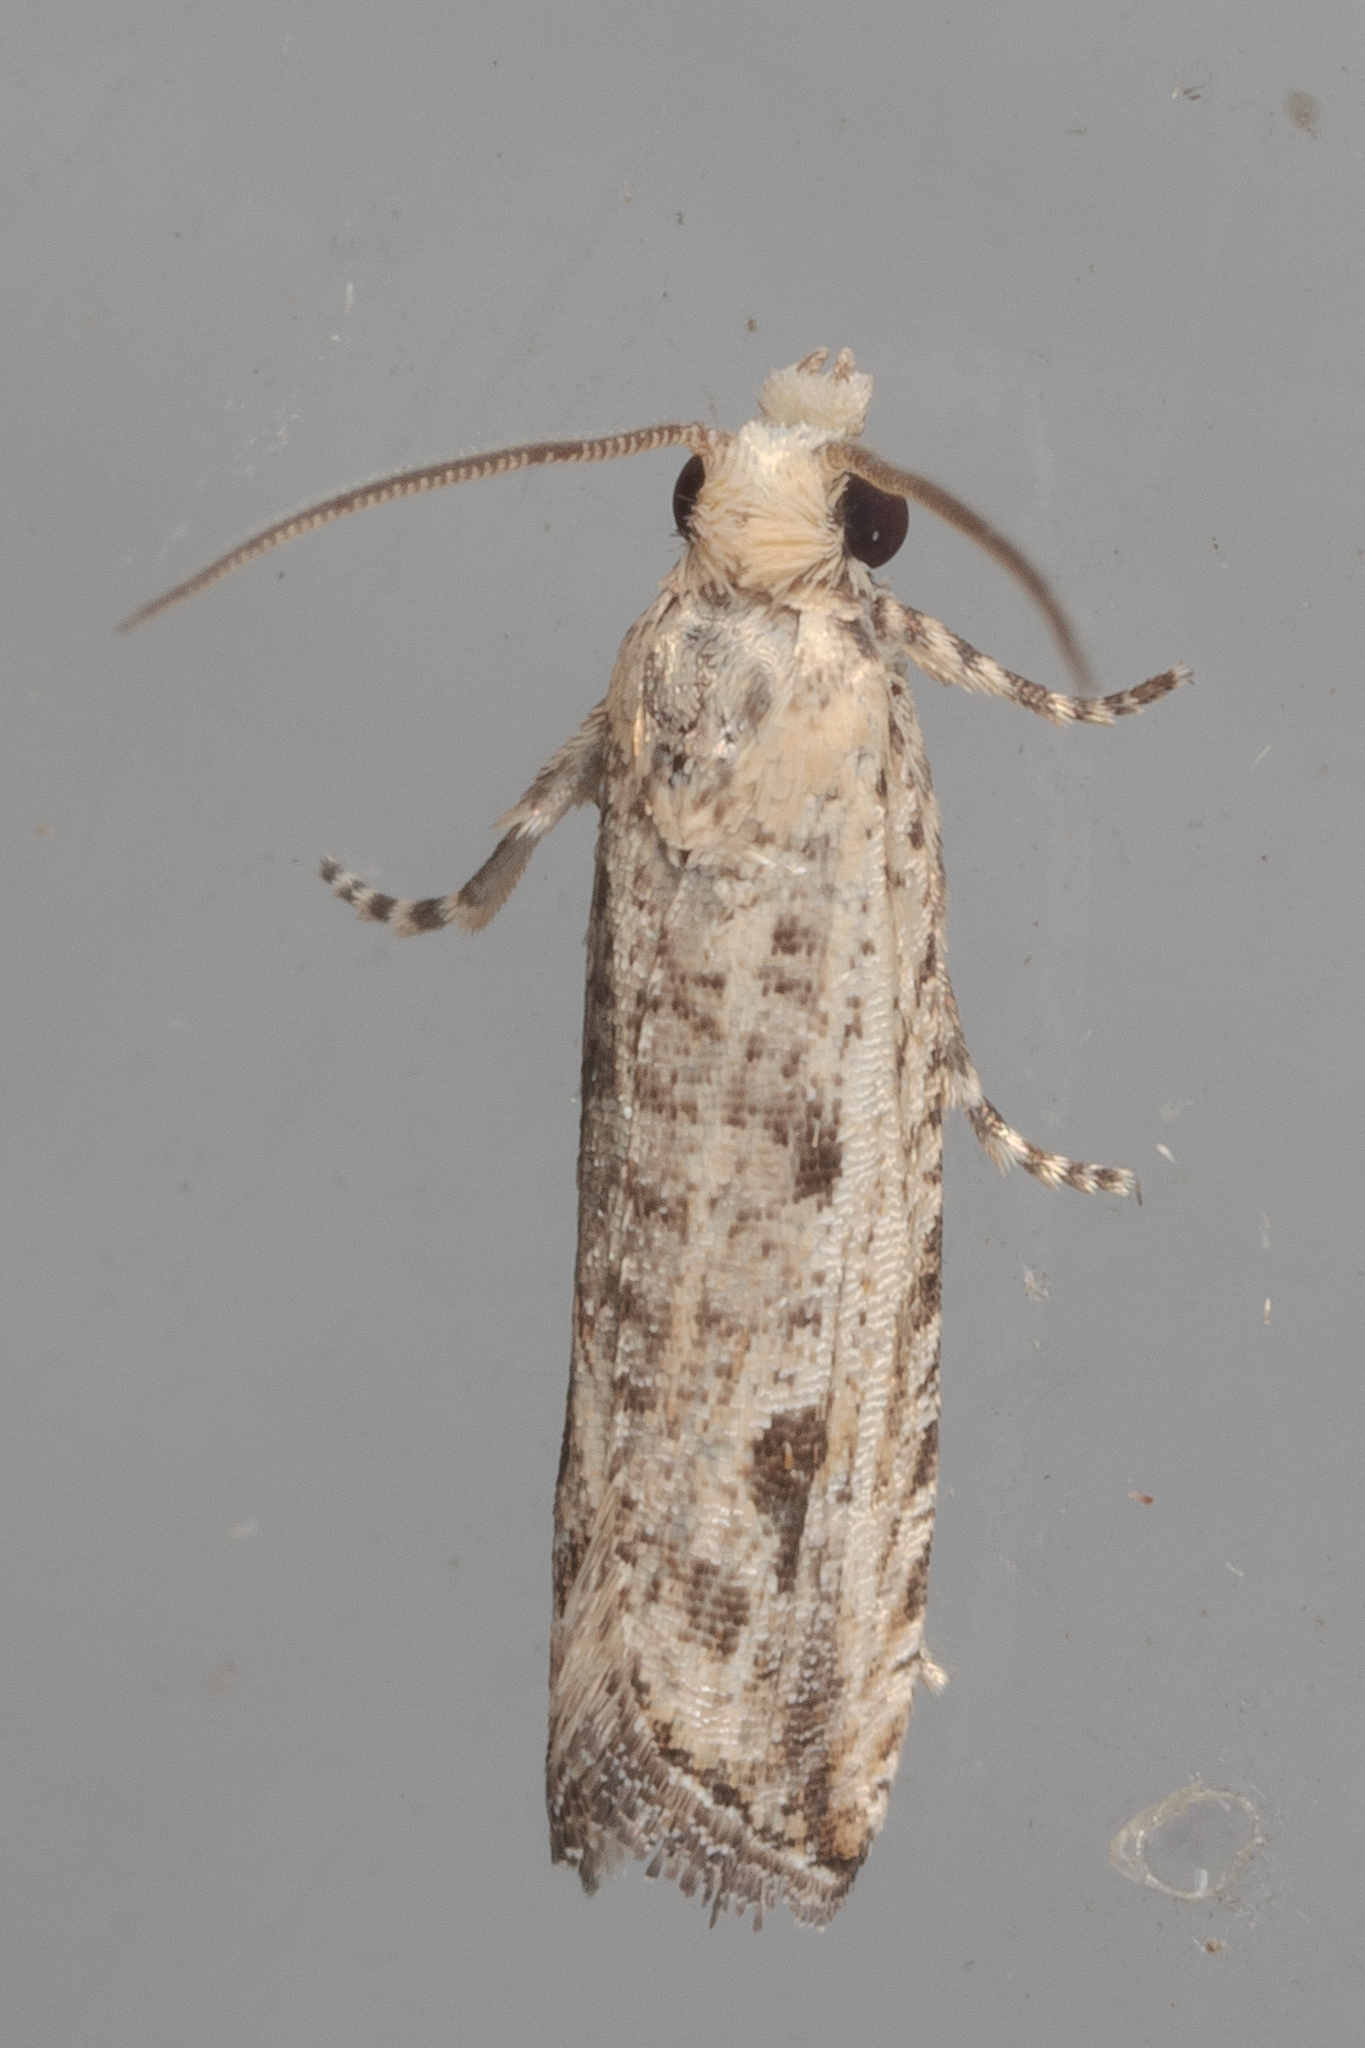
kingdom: Animalia
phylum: Arthropoda
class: Insecta
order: Lepidoptera
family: Tortricidae
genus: Bactra
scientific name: Bactra verutana
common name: Javelin moth
